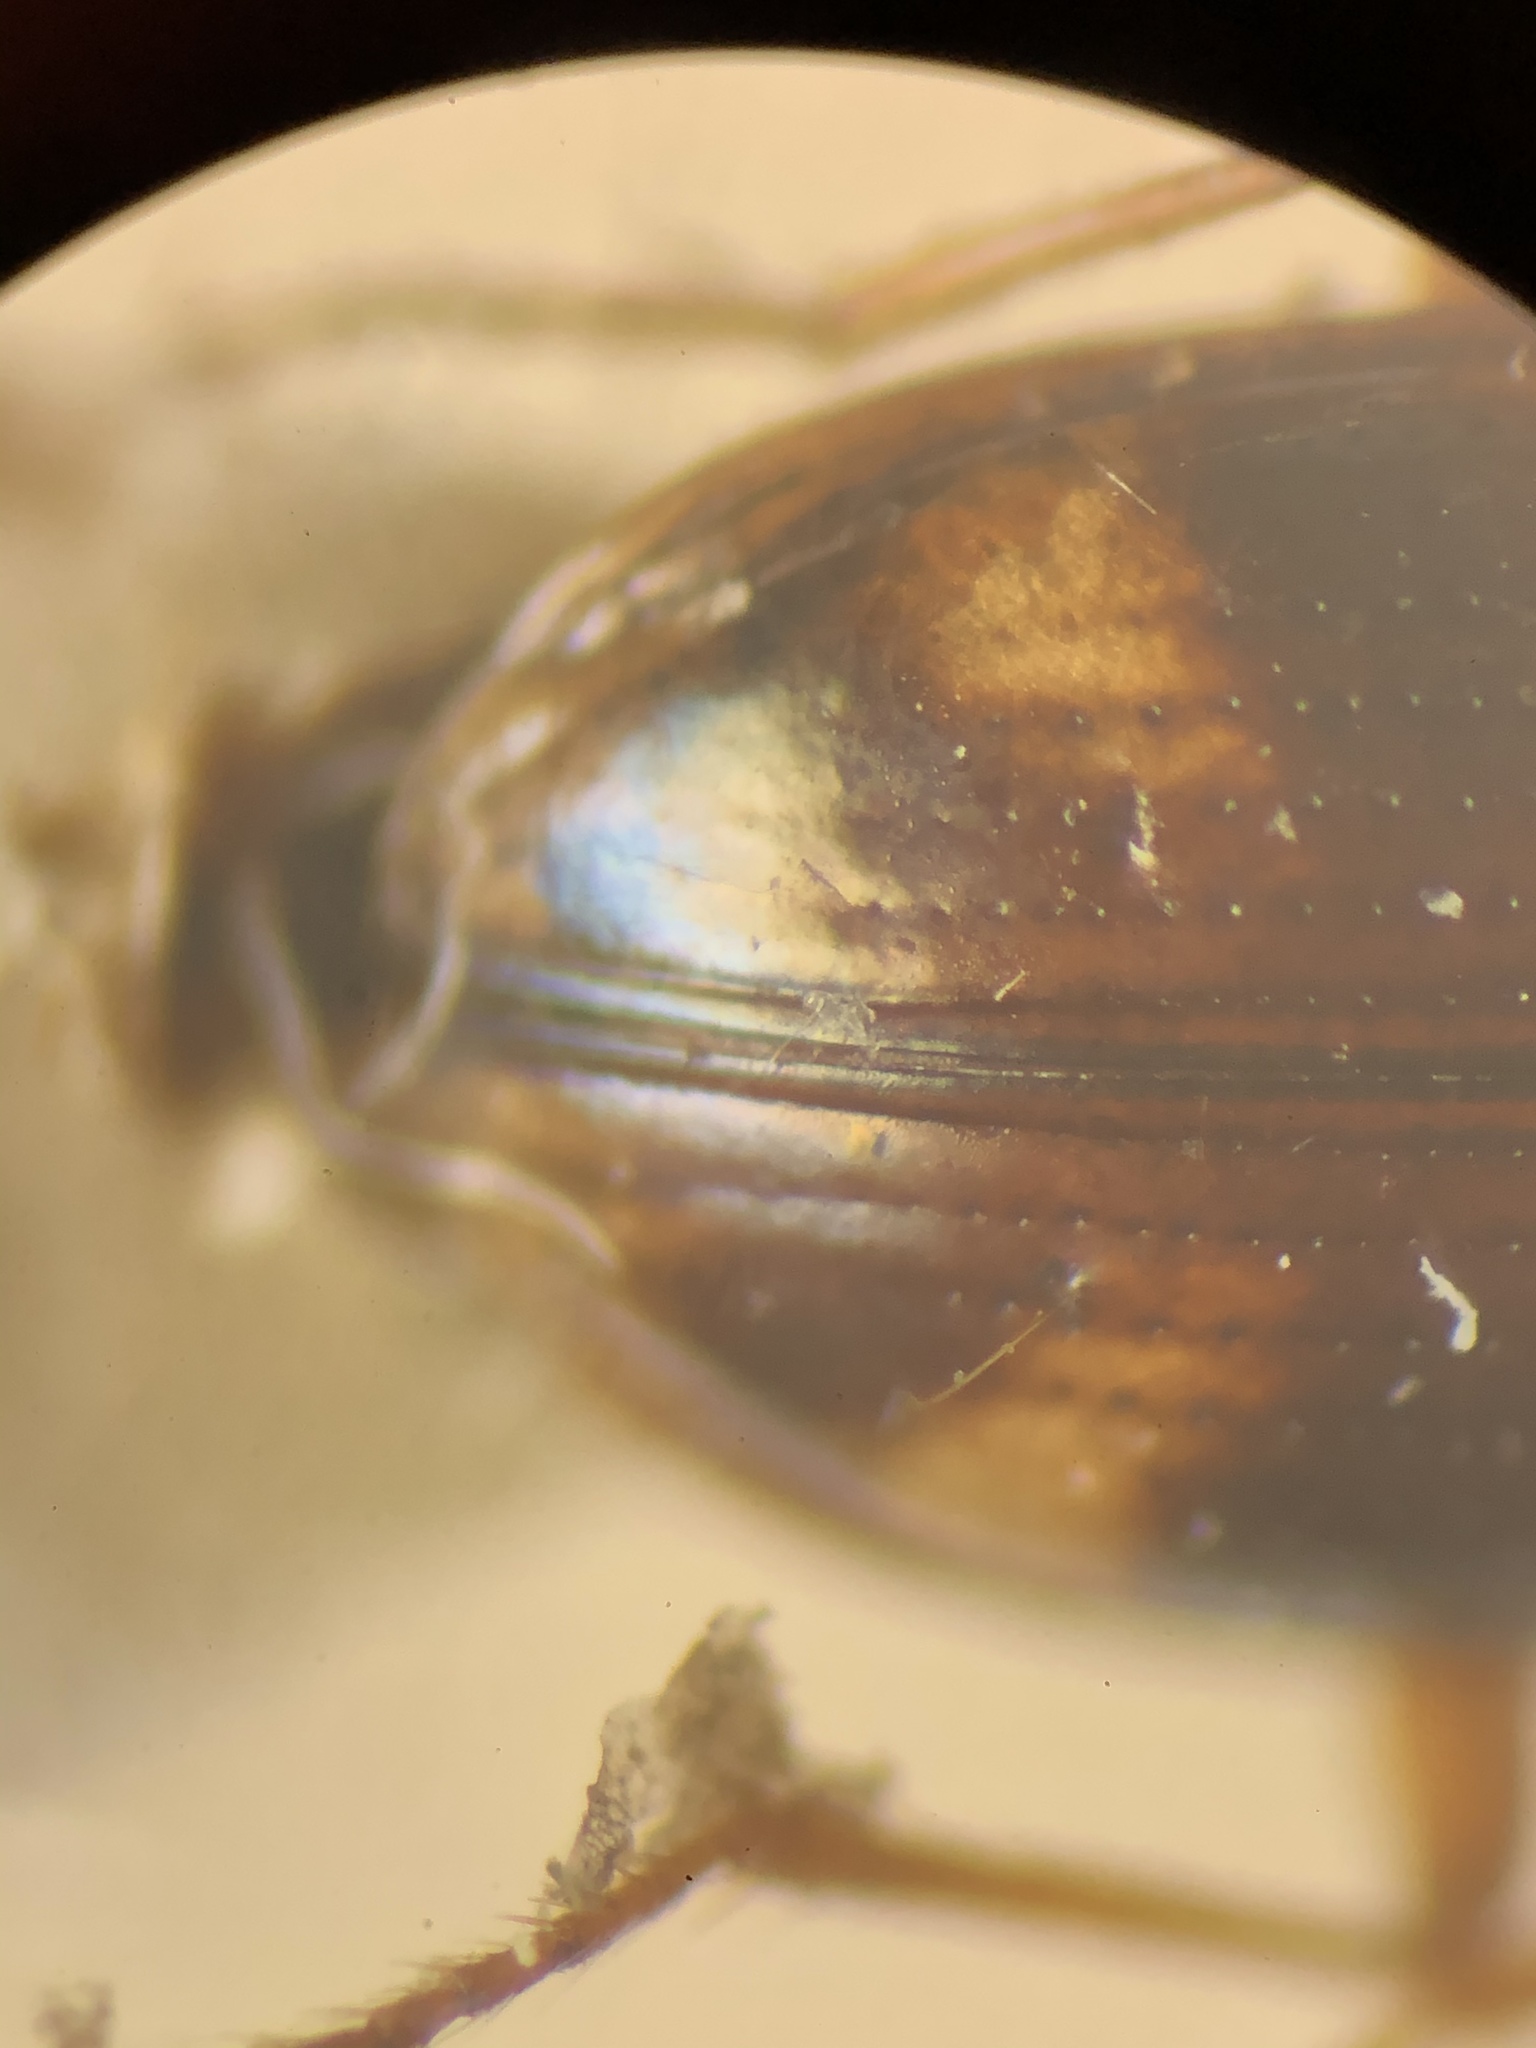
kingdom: Animalia
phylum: Arthropoda
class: Insecta
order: Coleoptera
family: Carabidae
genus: Bembidion
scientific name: Bembidion articulatum
